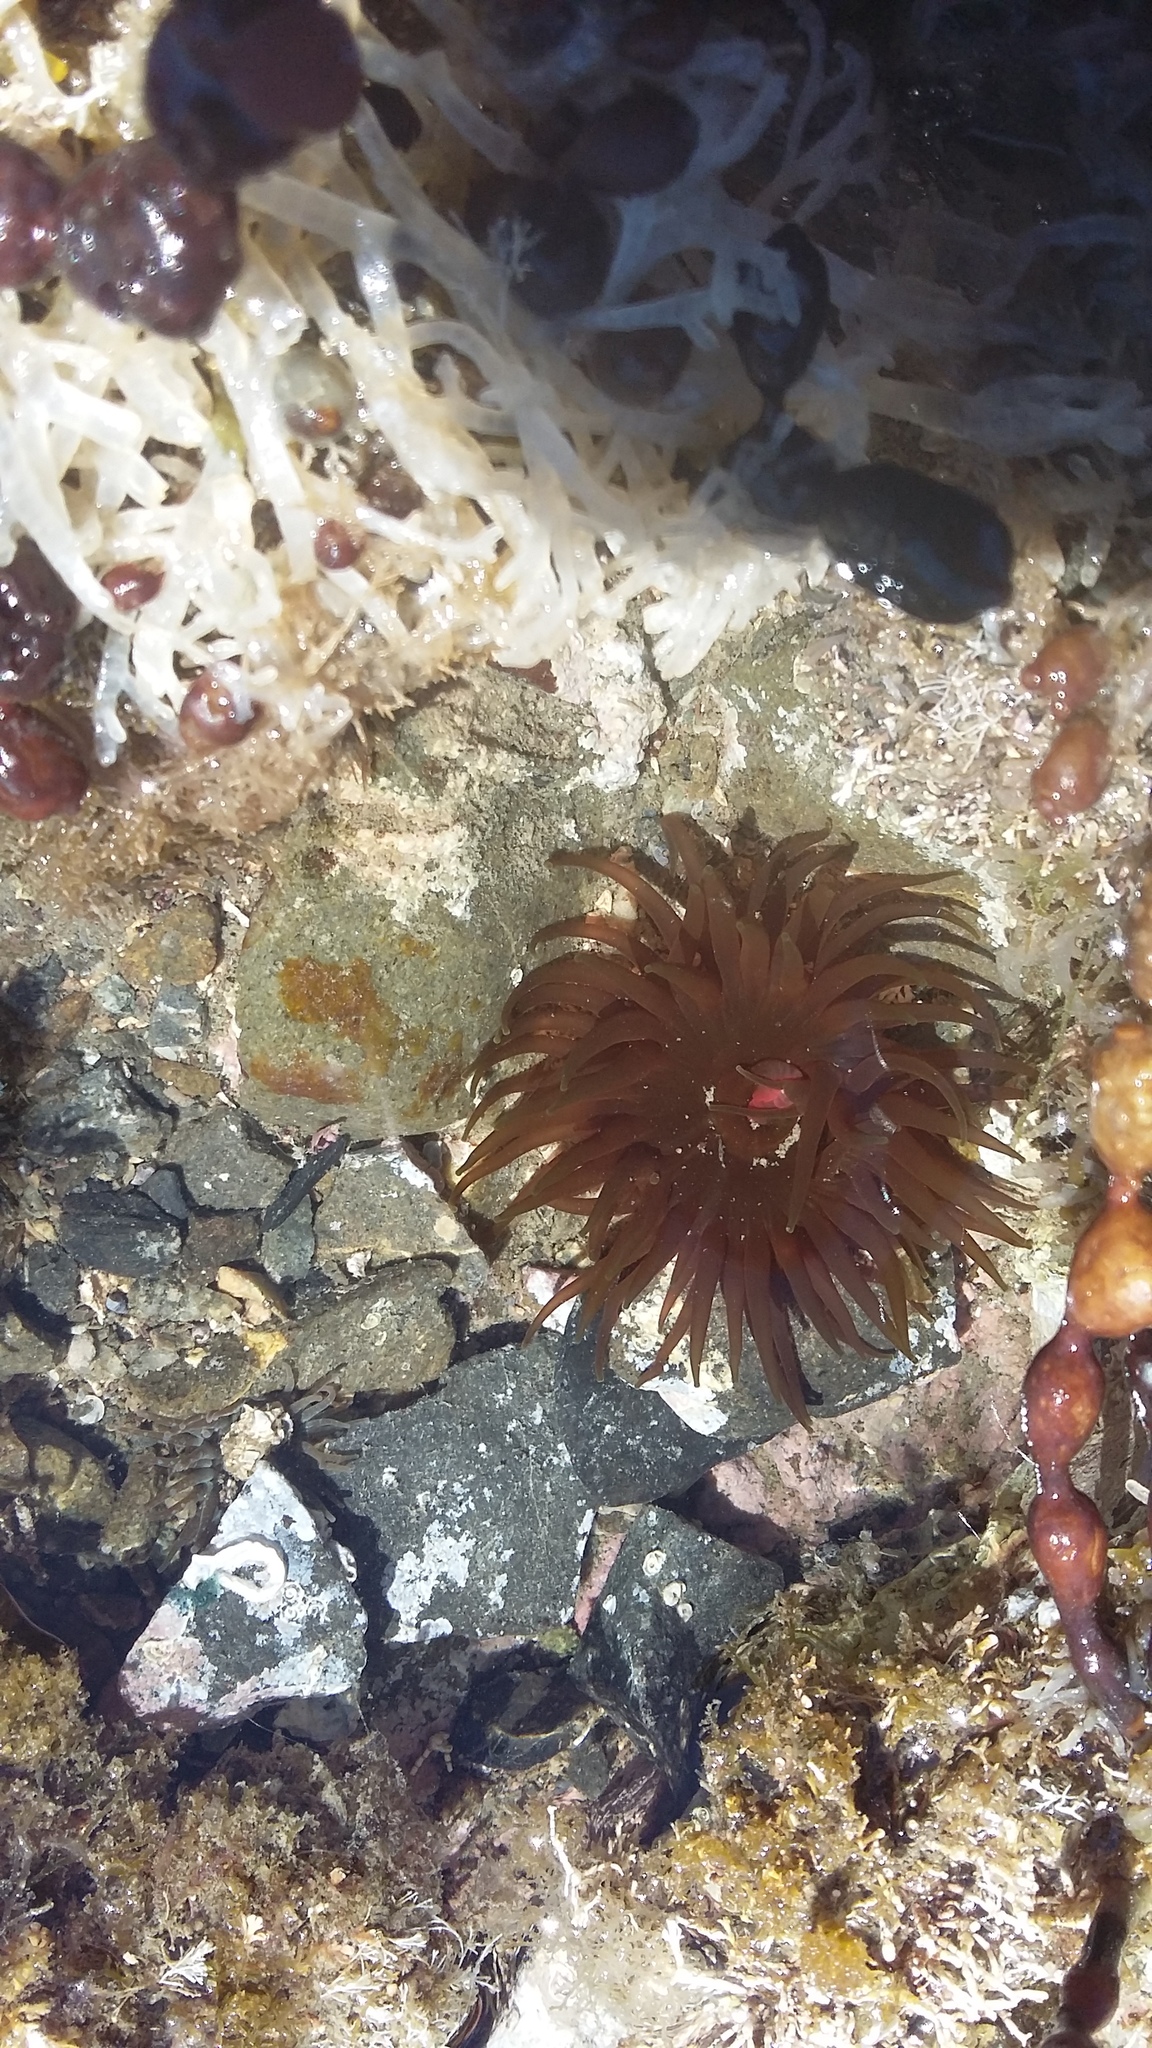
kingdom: Animalia
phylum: Cnidaria
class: Anthozoa
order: Actiniaria
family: Actiniidae
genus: Isactinia
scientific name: Isactinia olivacea
